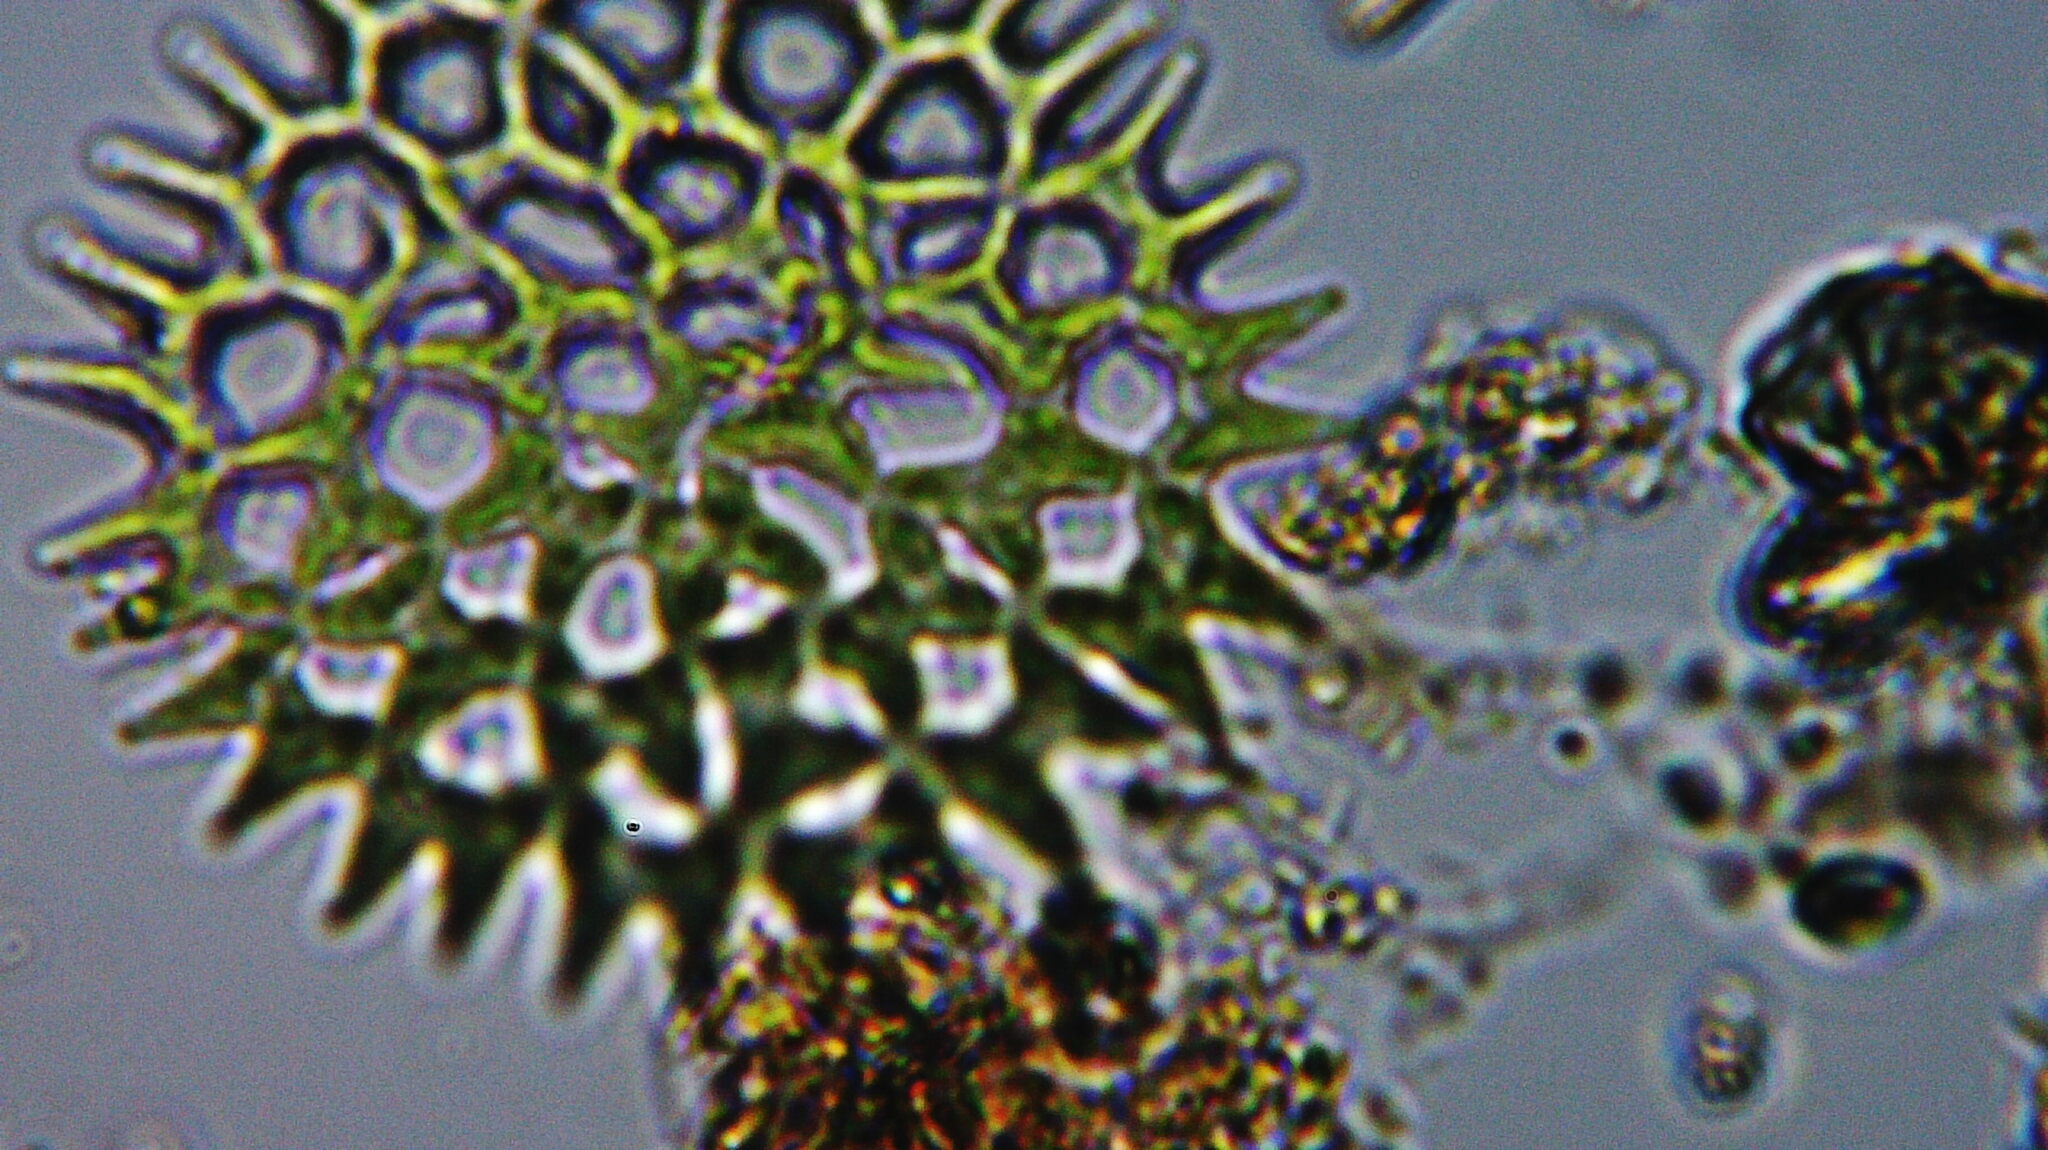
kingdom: Plantae
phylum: Chlorophyta
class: Chlorophyceae
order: Sphaeropleales
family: Hydrodictyaceae
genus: Pediastrum
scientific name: Pediastrum duplex
